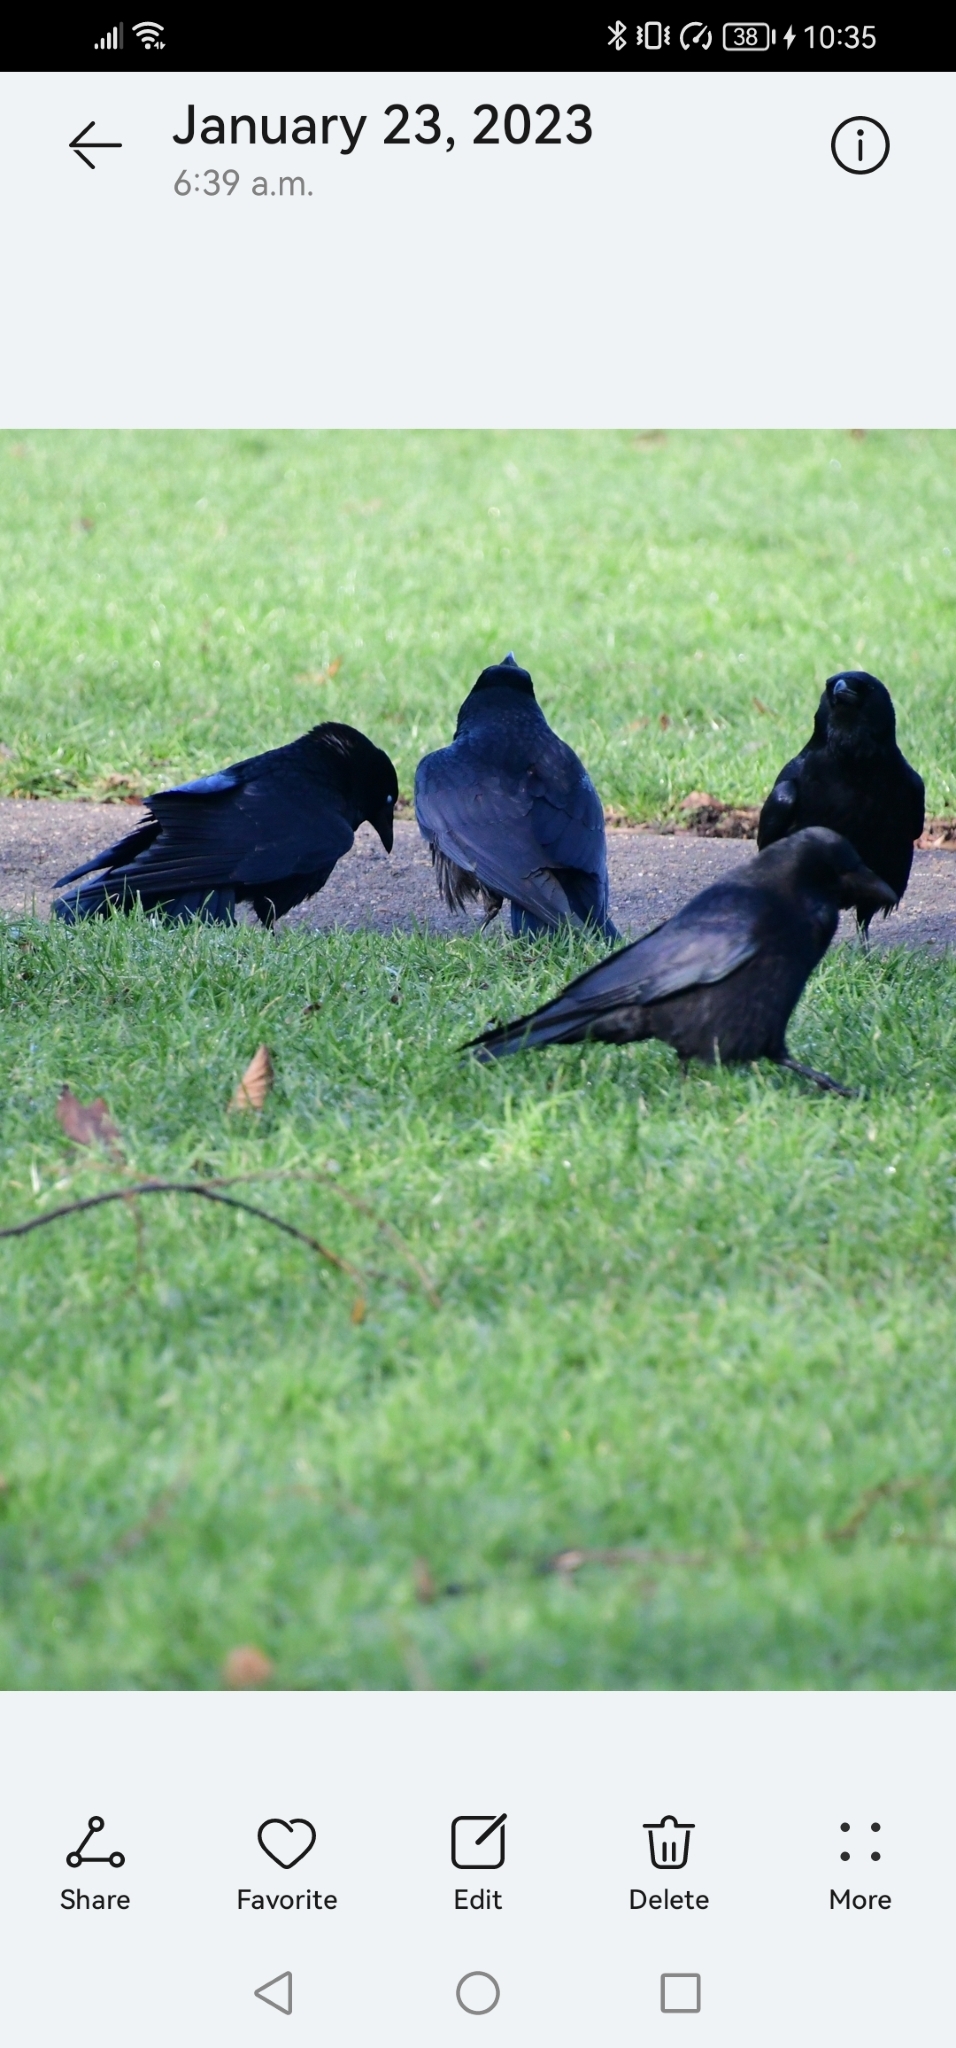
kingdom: Animalia
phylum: Chordata
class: Aves
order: Passeriformes
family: Corvidae
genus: Corvus
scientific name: Corvus corone
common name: Carrion crow
